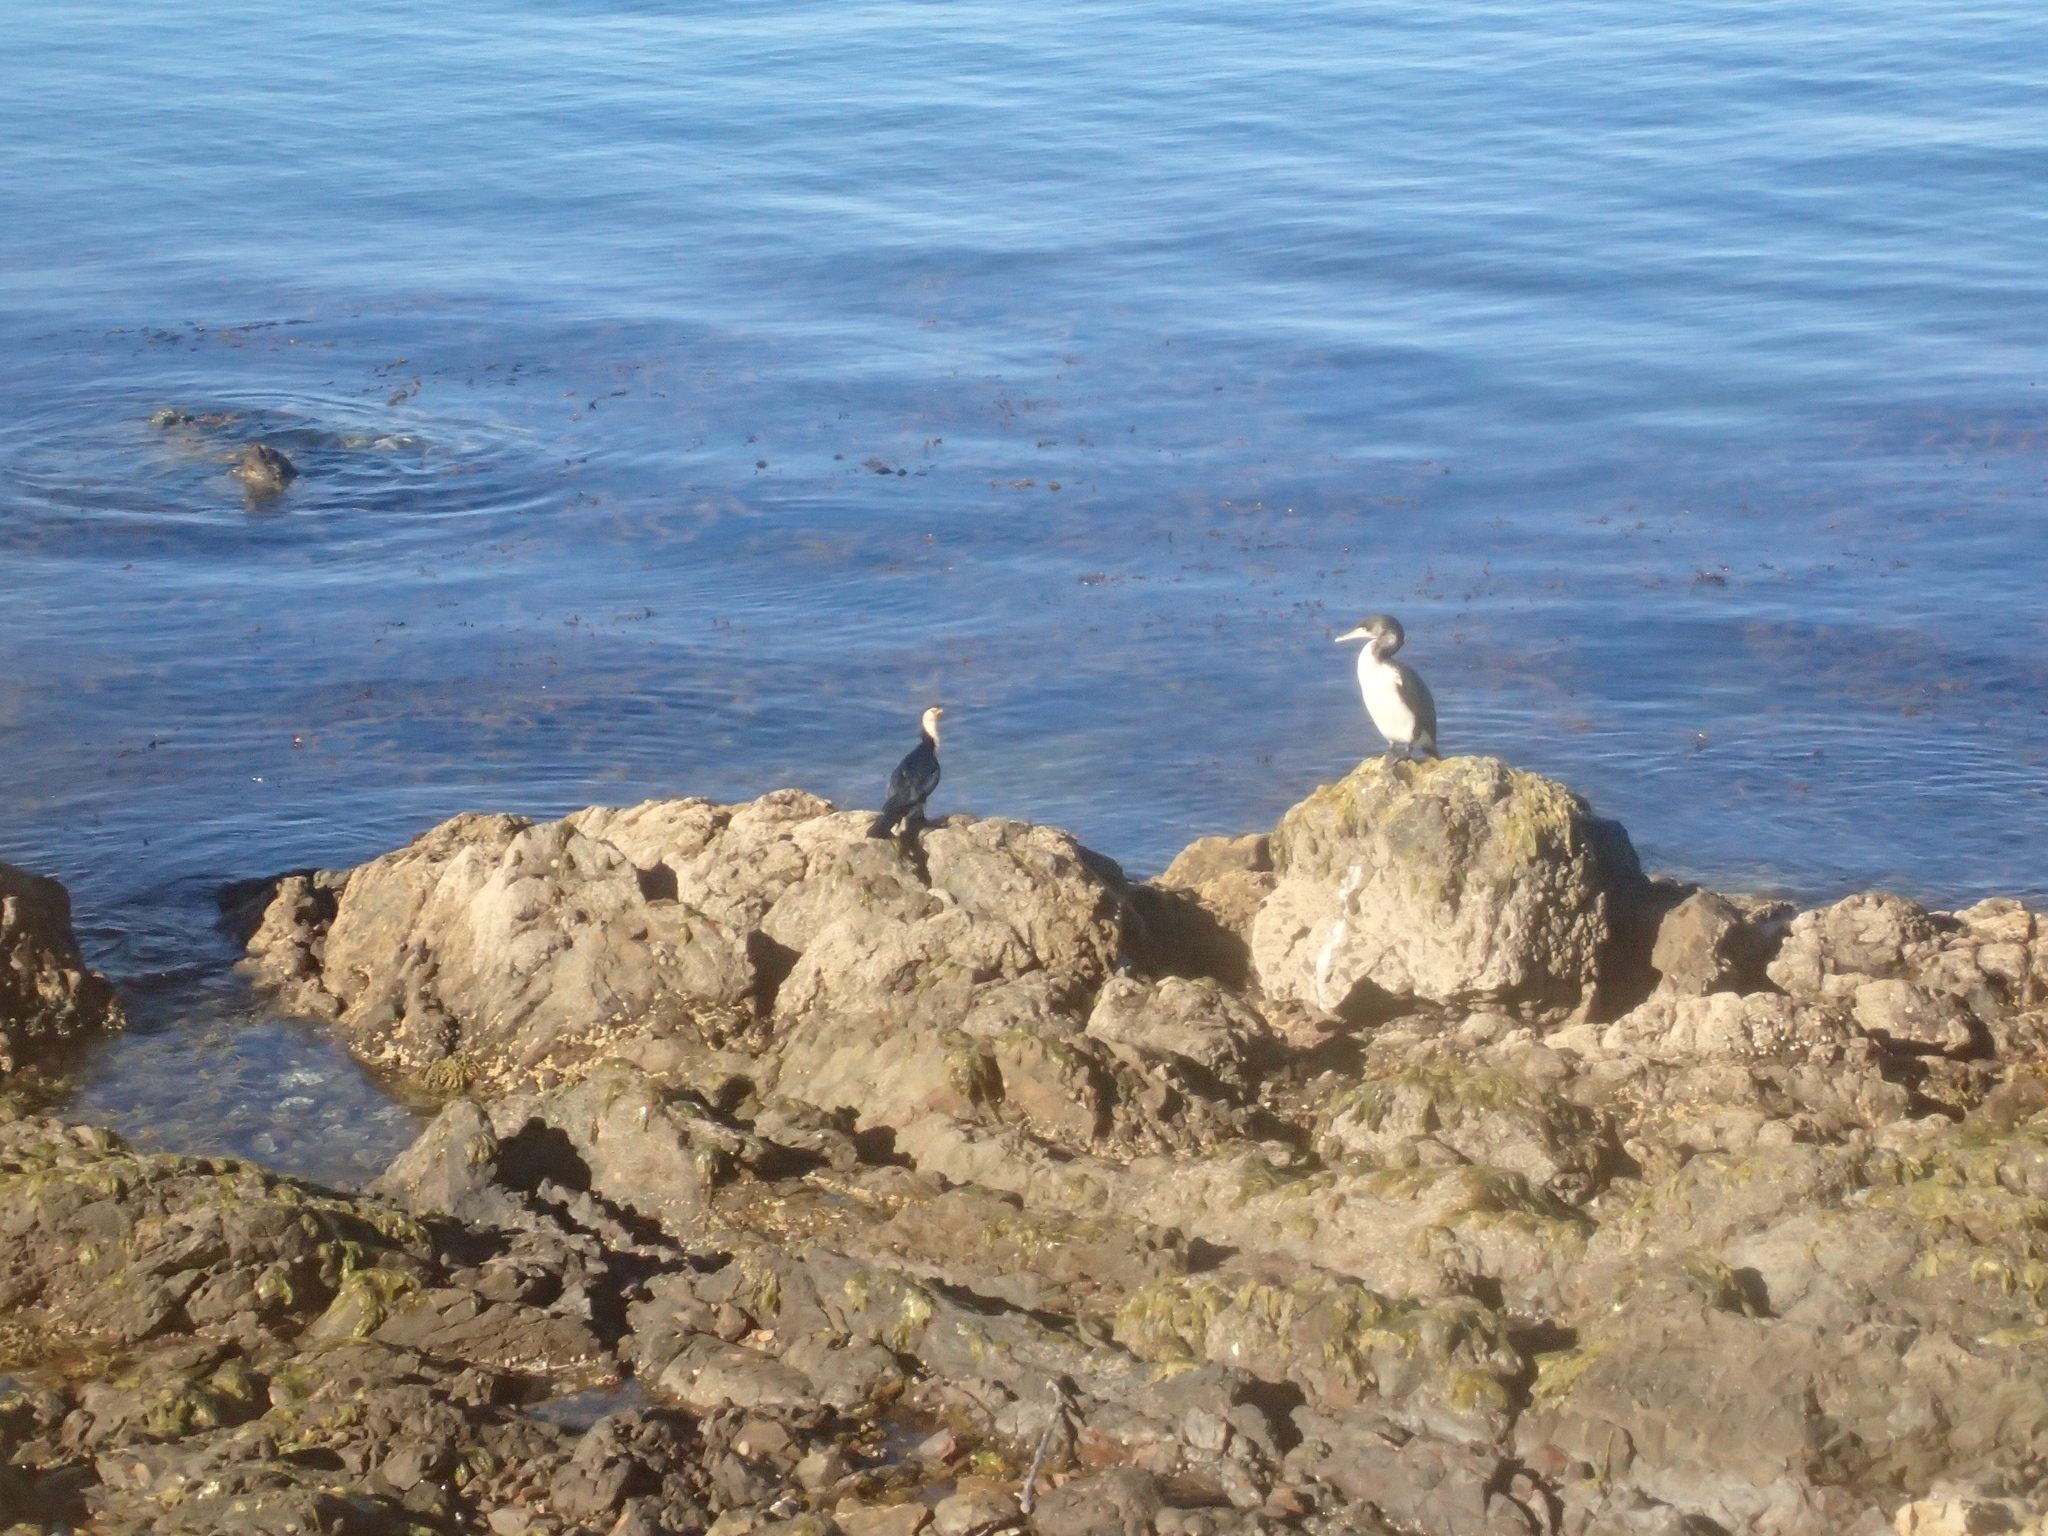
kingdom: Animalia
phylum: Chordata
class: Aves
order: Suliformes
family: Phalacrocoracidae
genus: Phalacrocorax
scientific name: Phalacrocorax varius
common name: Pied cormorant
